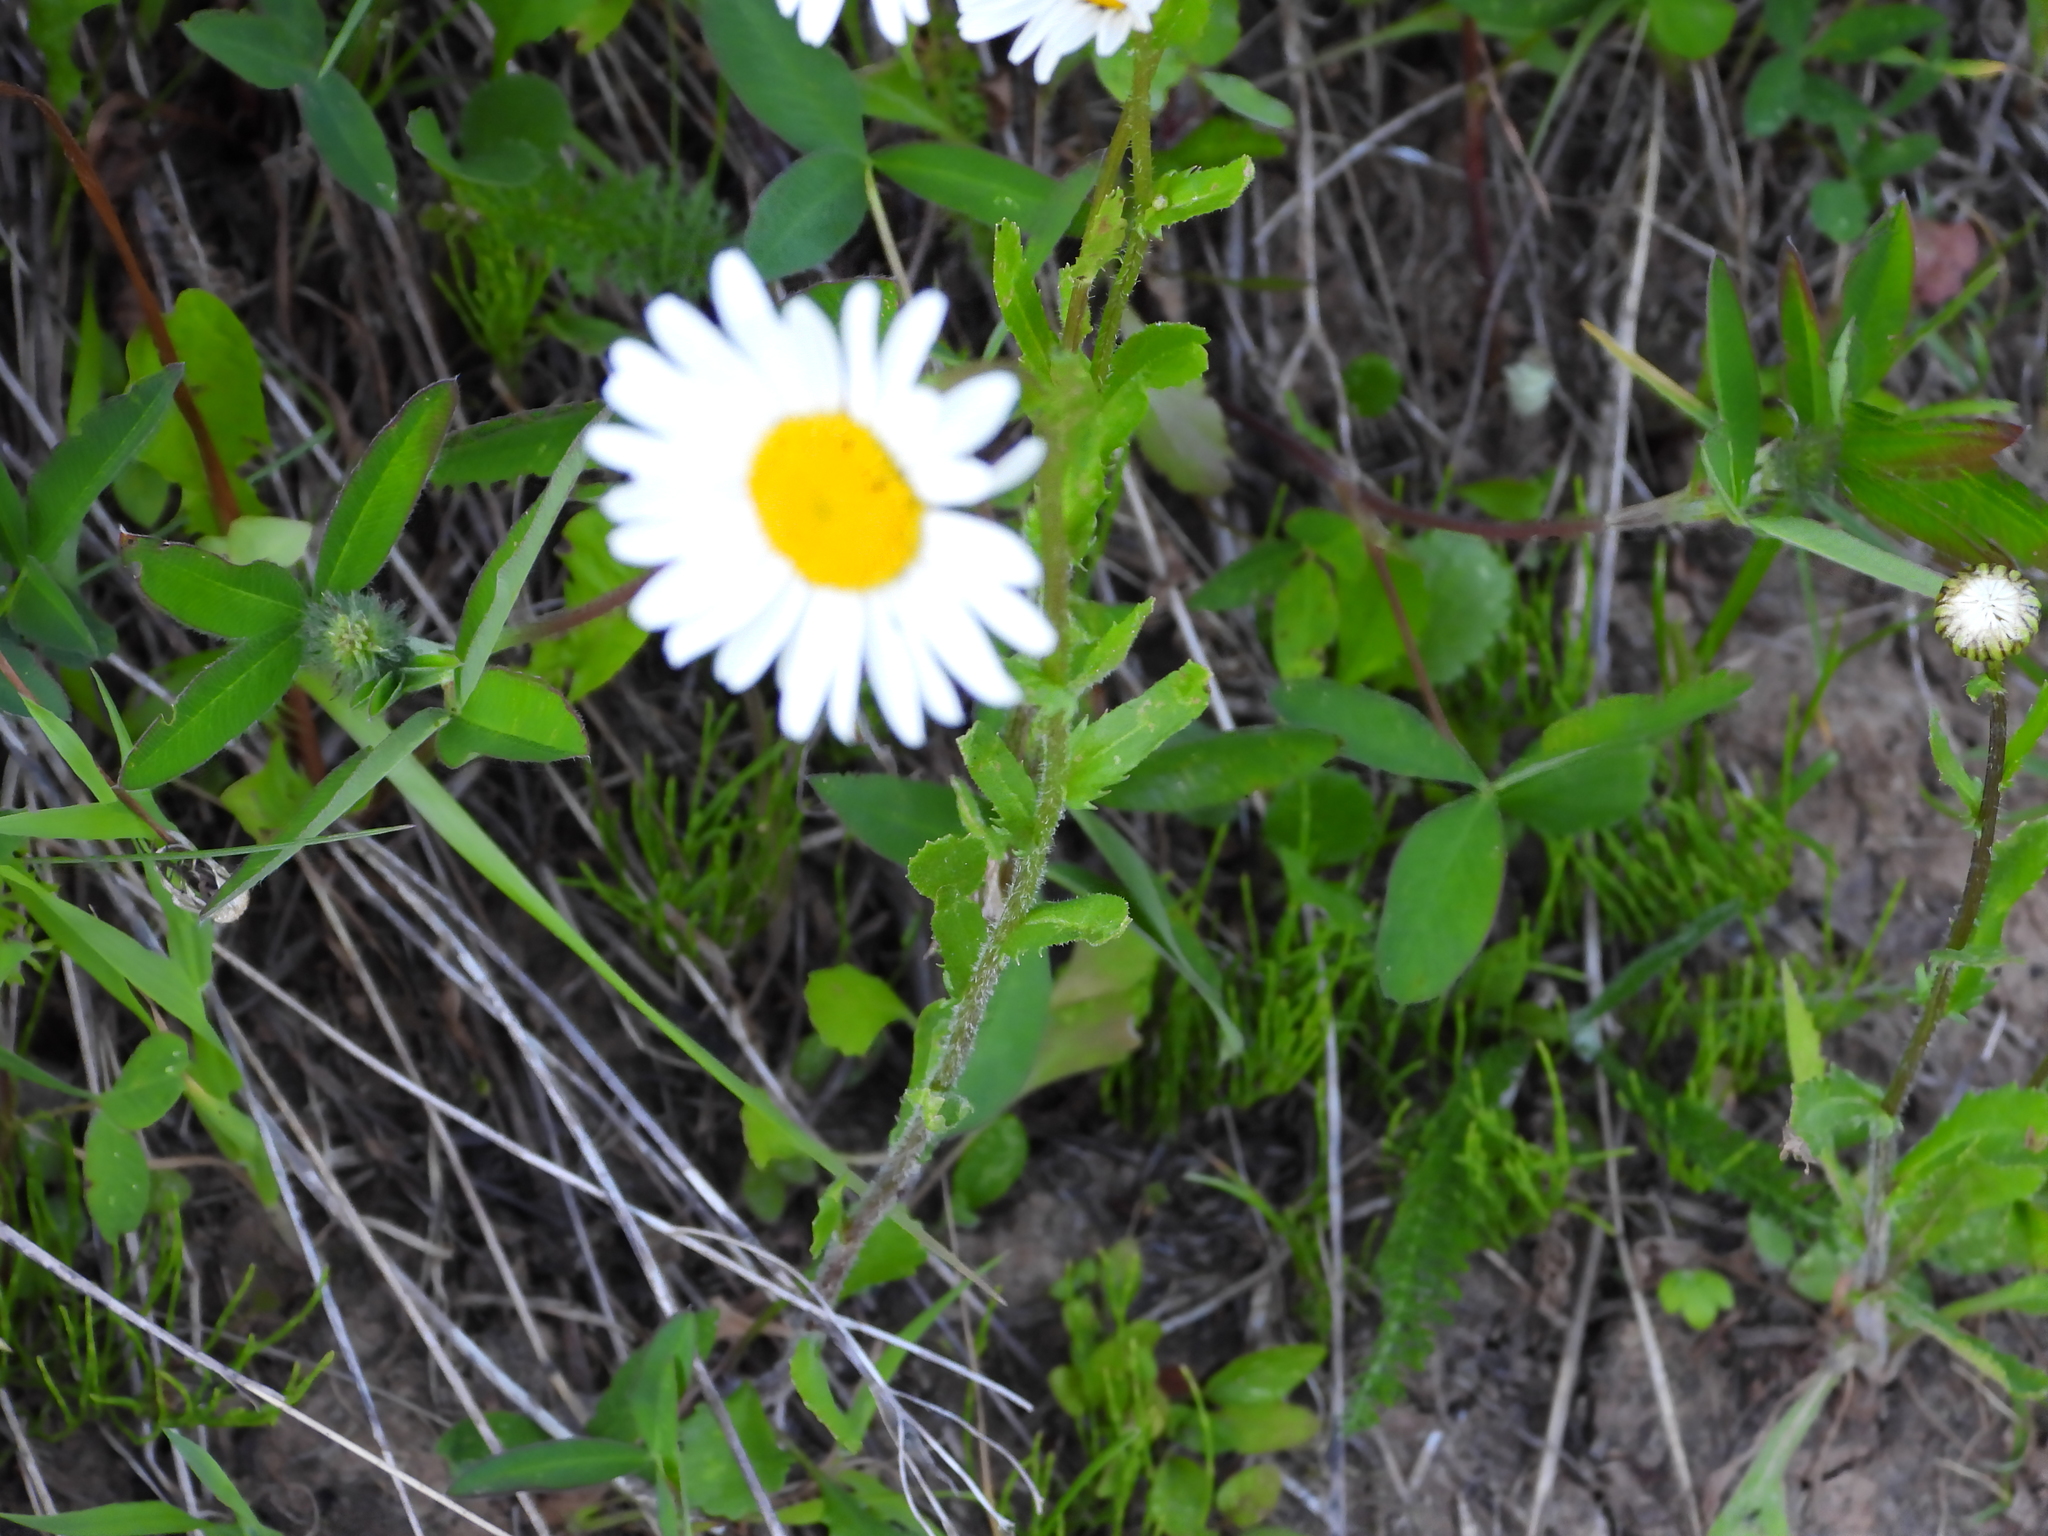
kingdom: Plantae
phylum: Tracheophyta
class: Magnoliopsida
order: Asterales
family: Asteraceae
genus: Leucanthemum
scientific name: Leucanthemum vulgare
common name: Oxeye daisy
